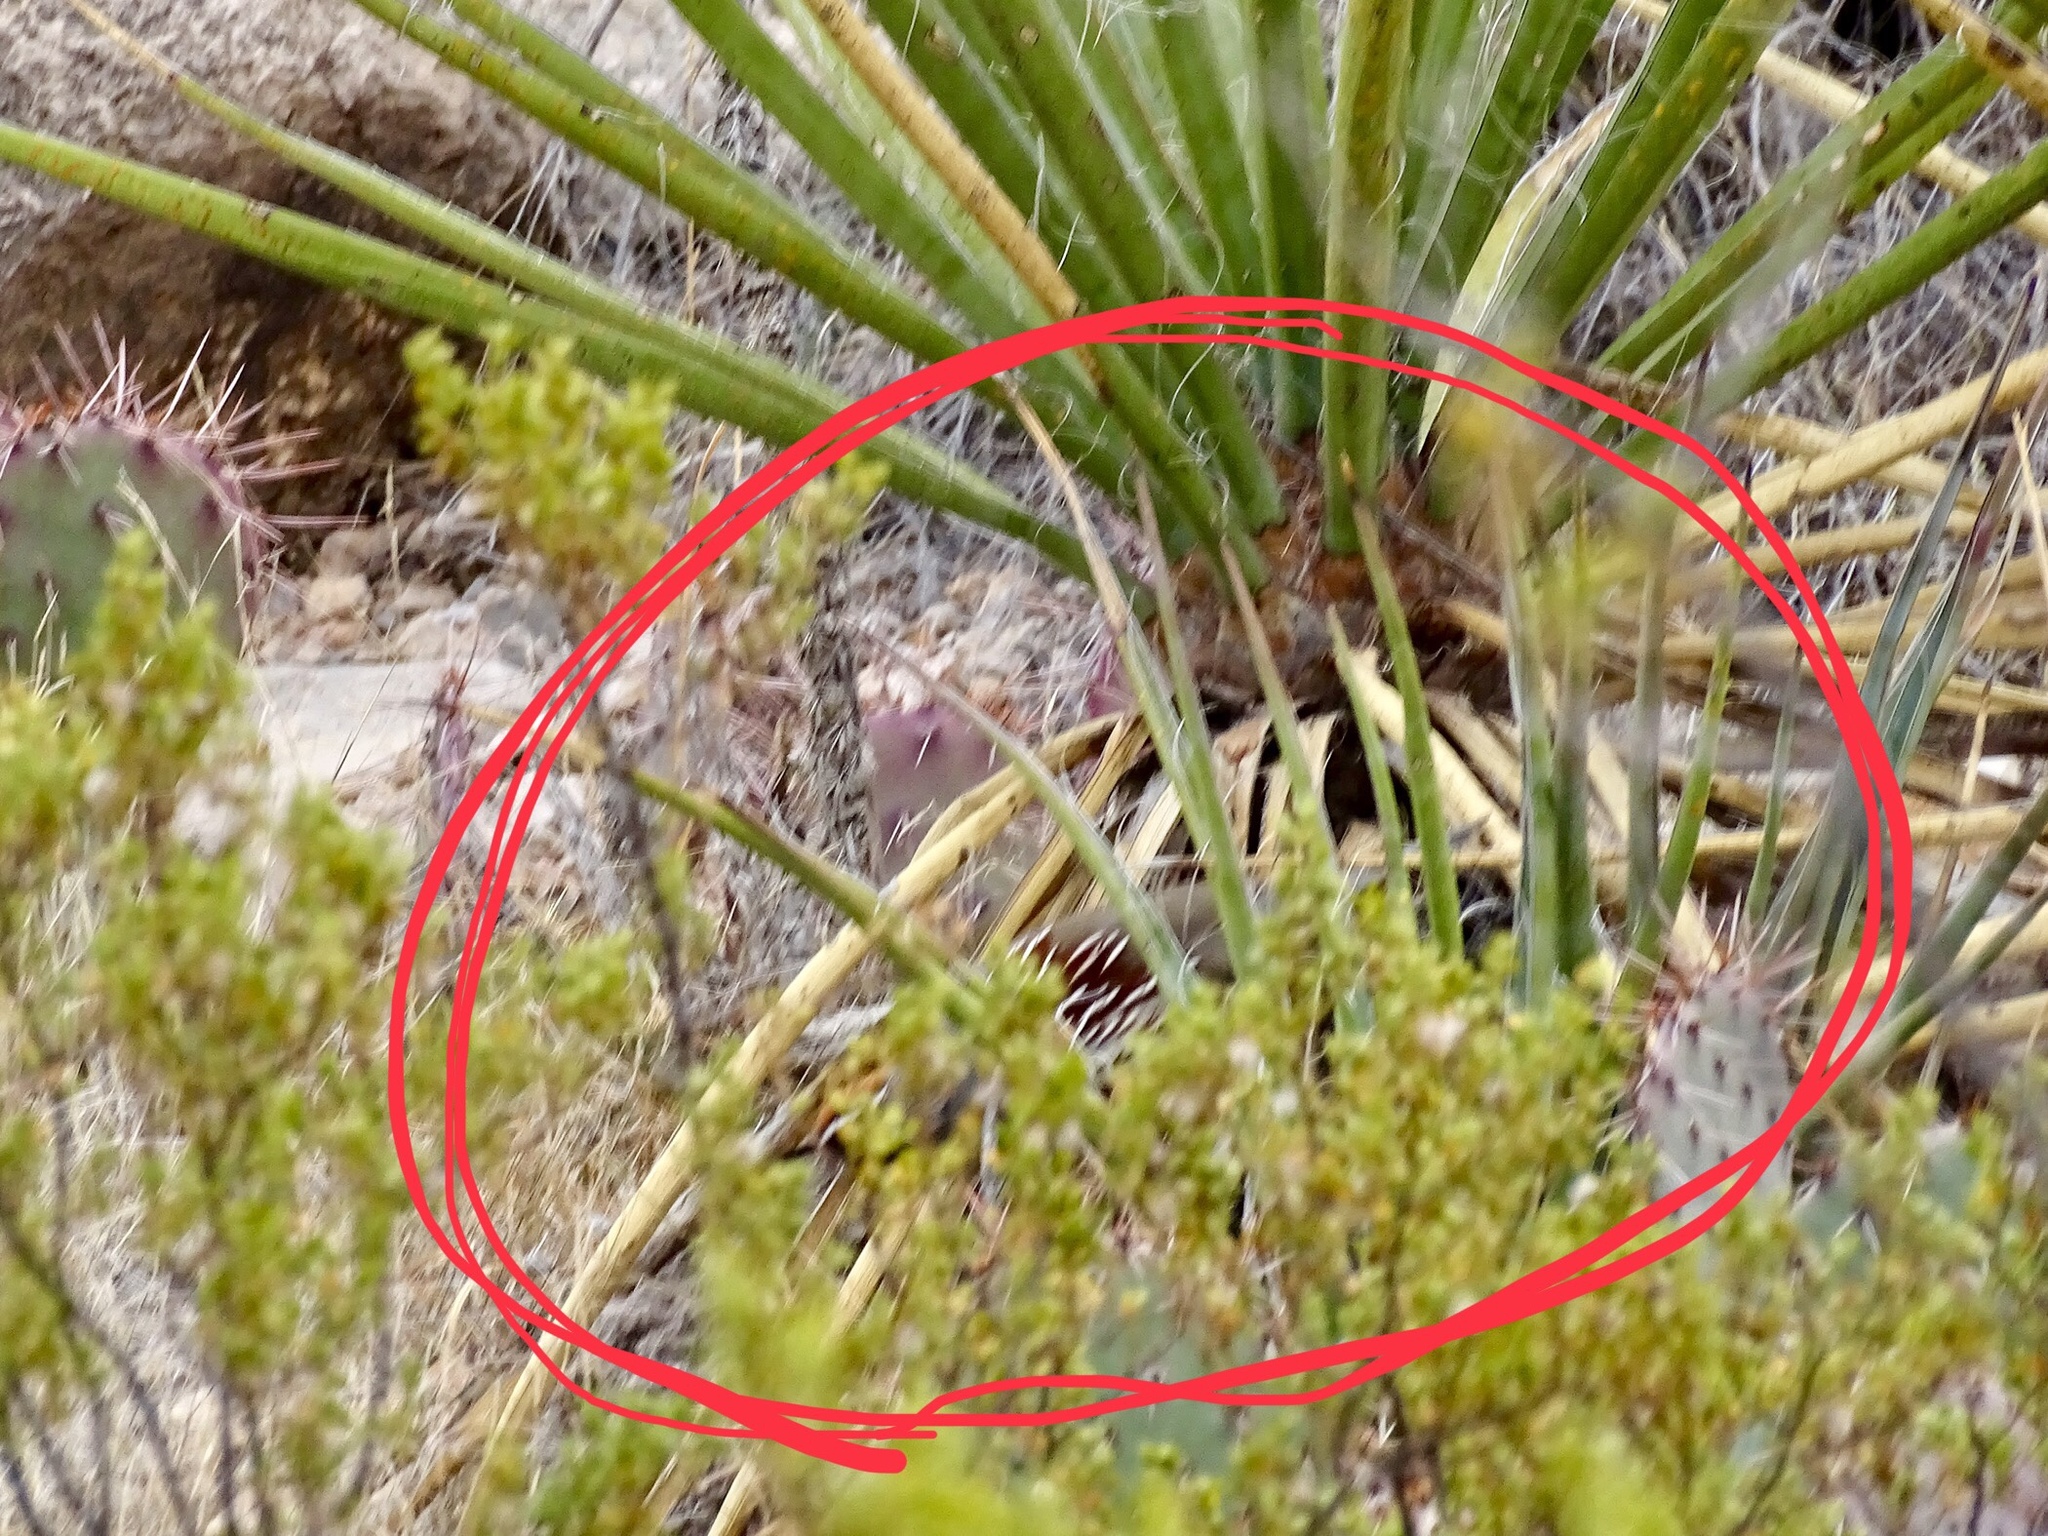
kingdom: Animalia
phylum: Chordata
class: Aves
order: Galliformes
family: Odontophoridae
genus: Callipepla
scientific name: Callipepla gambelii
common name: Gambel's quail
